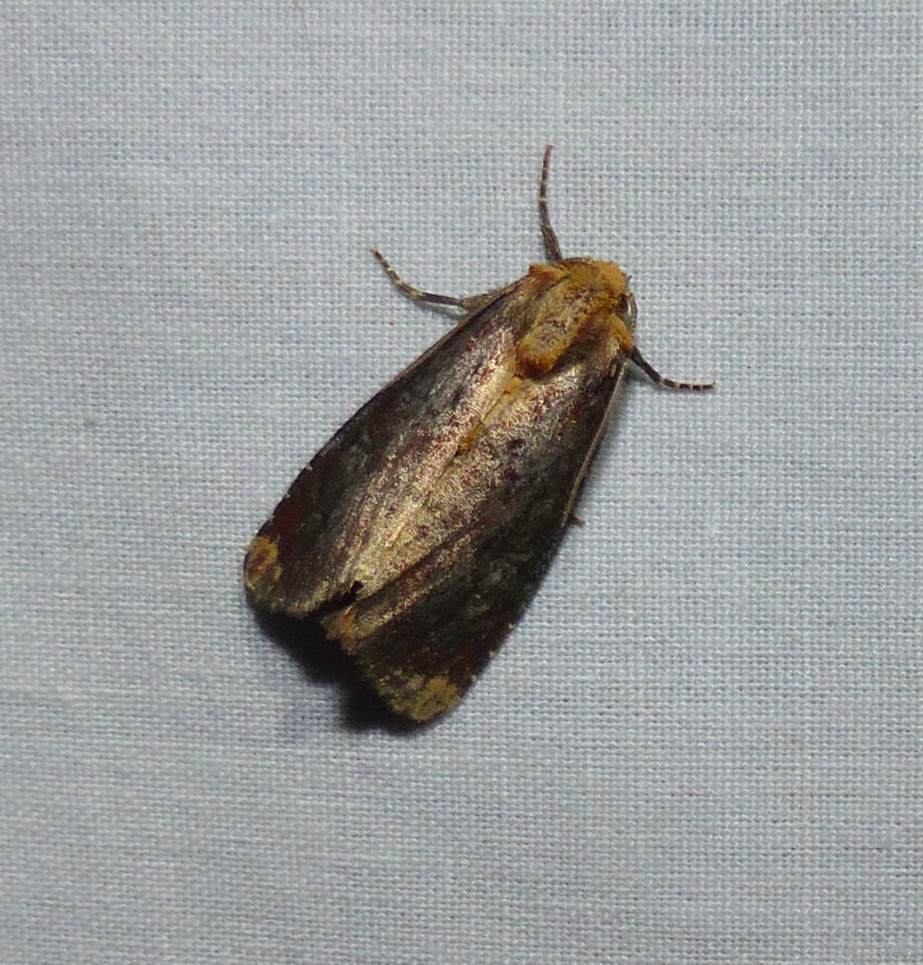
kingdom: Animalia
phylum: Arthropoda
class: Insecta
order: Lepidoptera
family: Noctuidae
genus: Achatodes
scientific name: Achatodes zeae
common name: Elder shoot borer
